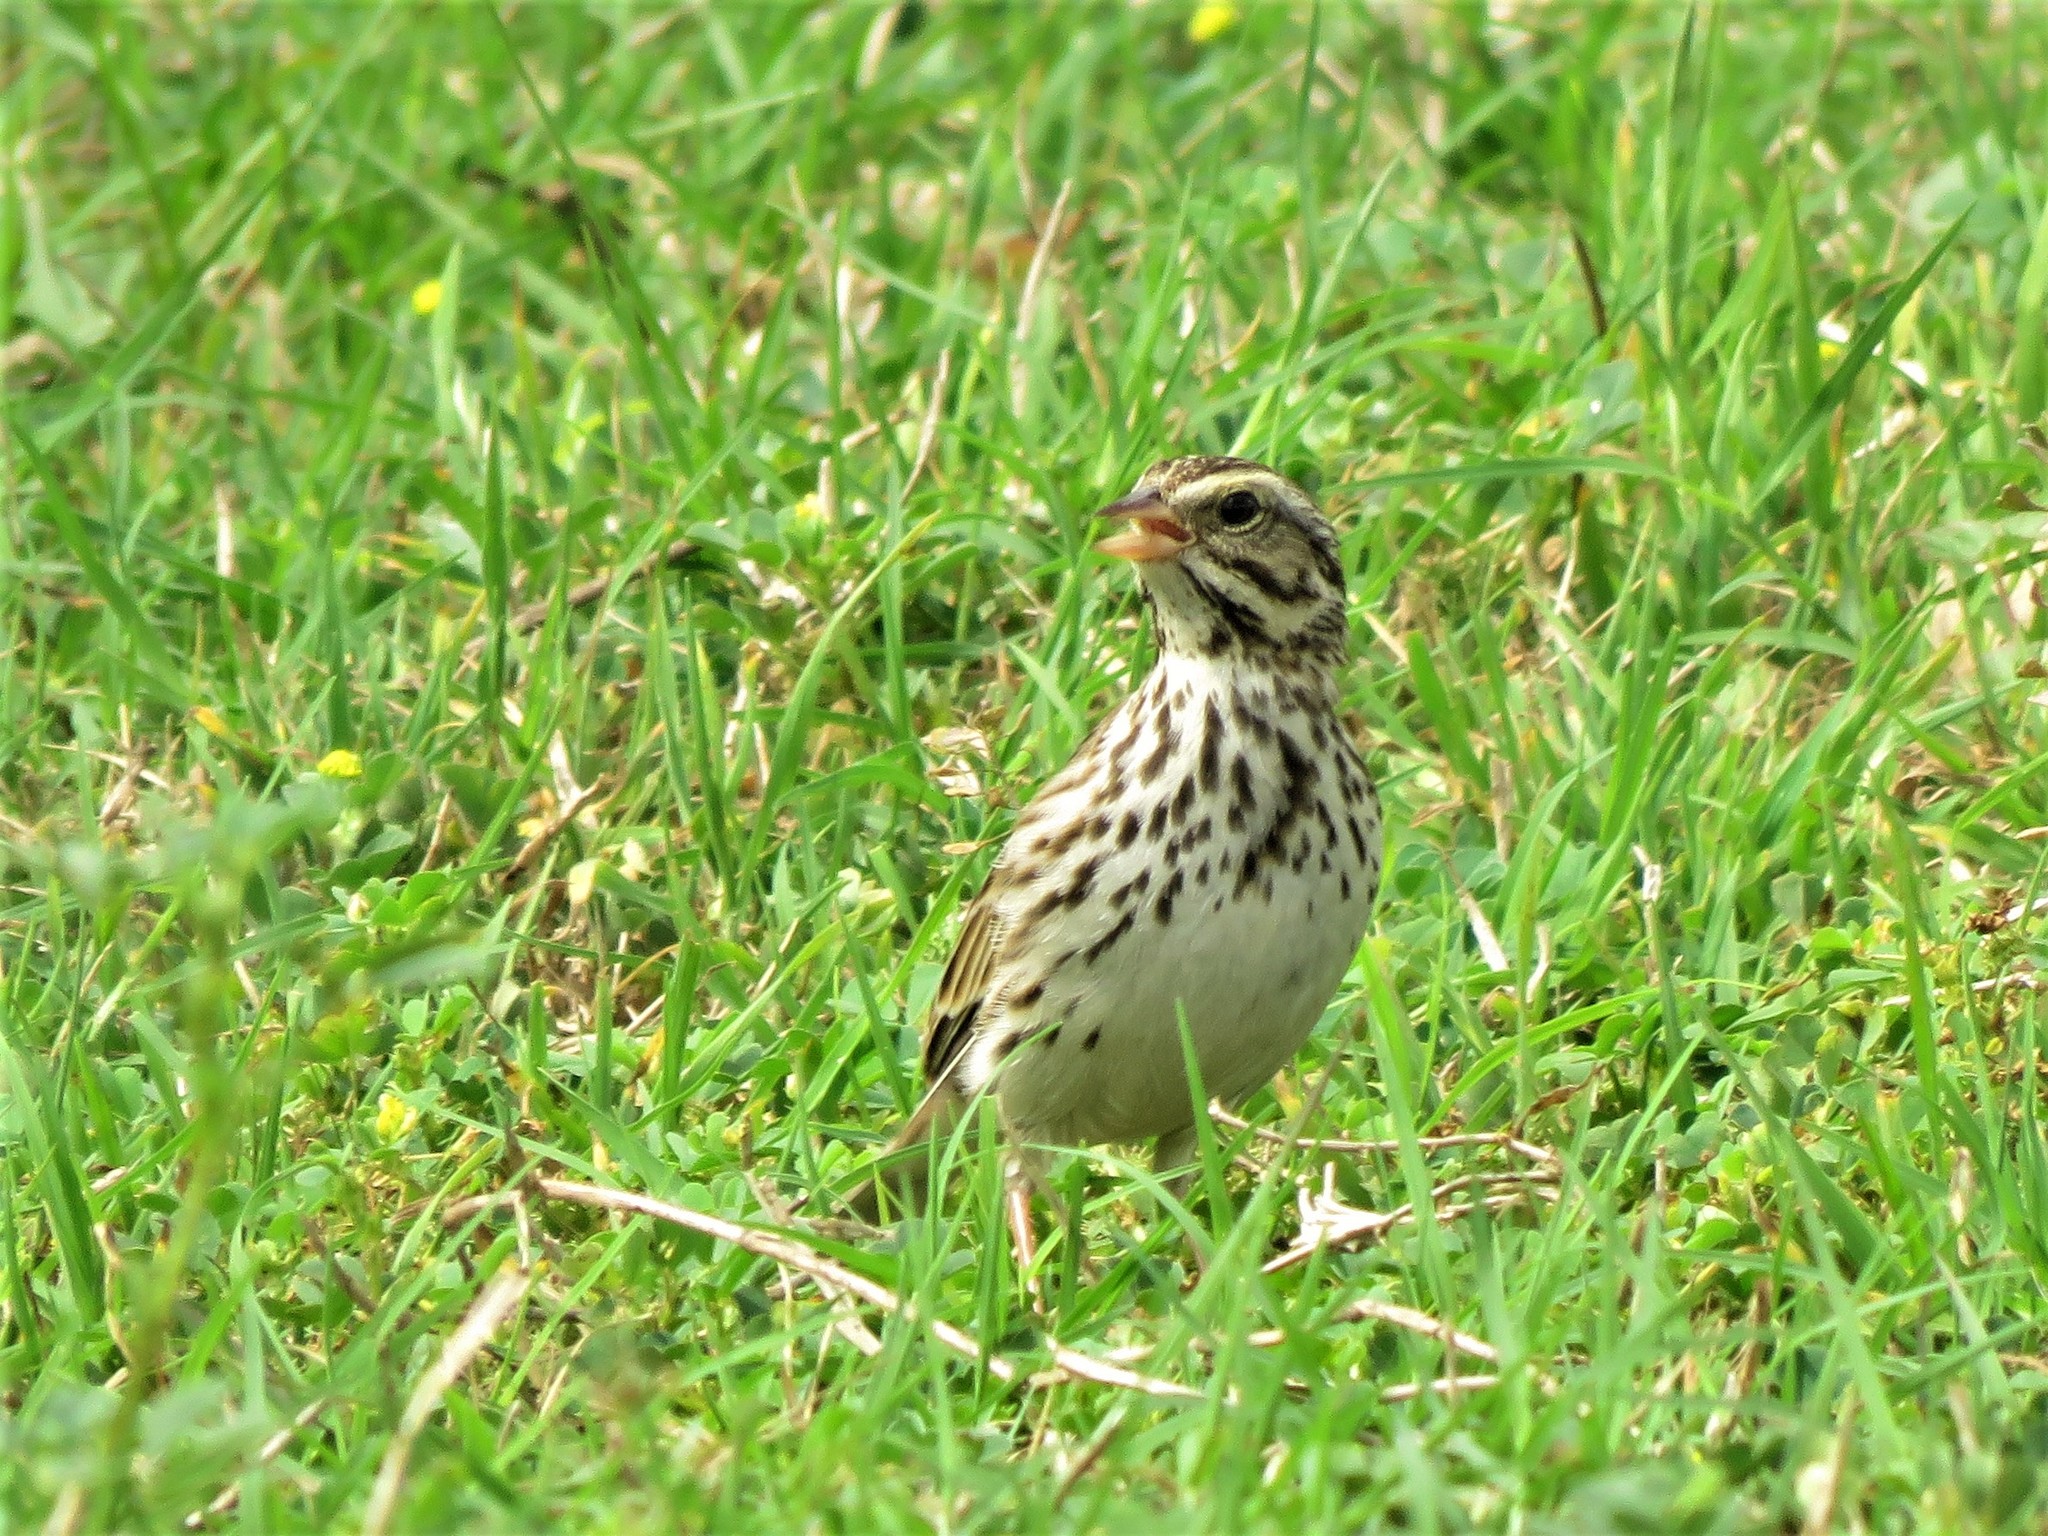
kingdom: Animalia
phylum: Chordata
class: Aves
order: Passeriformes
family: Passerellidae
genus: Passerculus
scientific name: Passerculus sandwichensis
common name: Savannah sparrow
